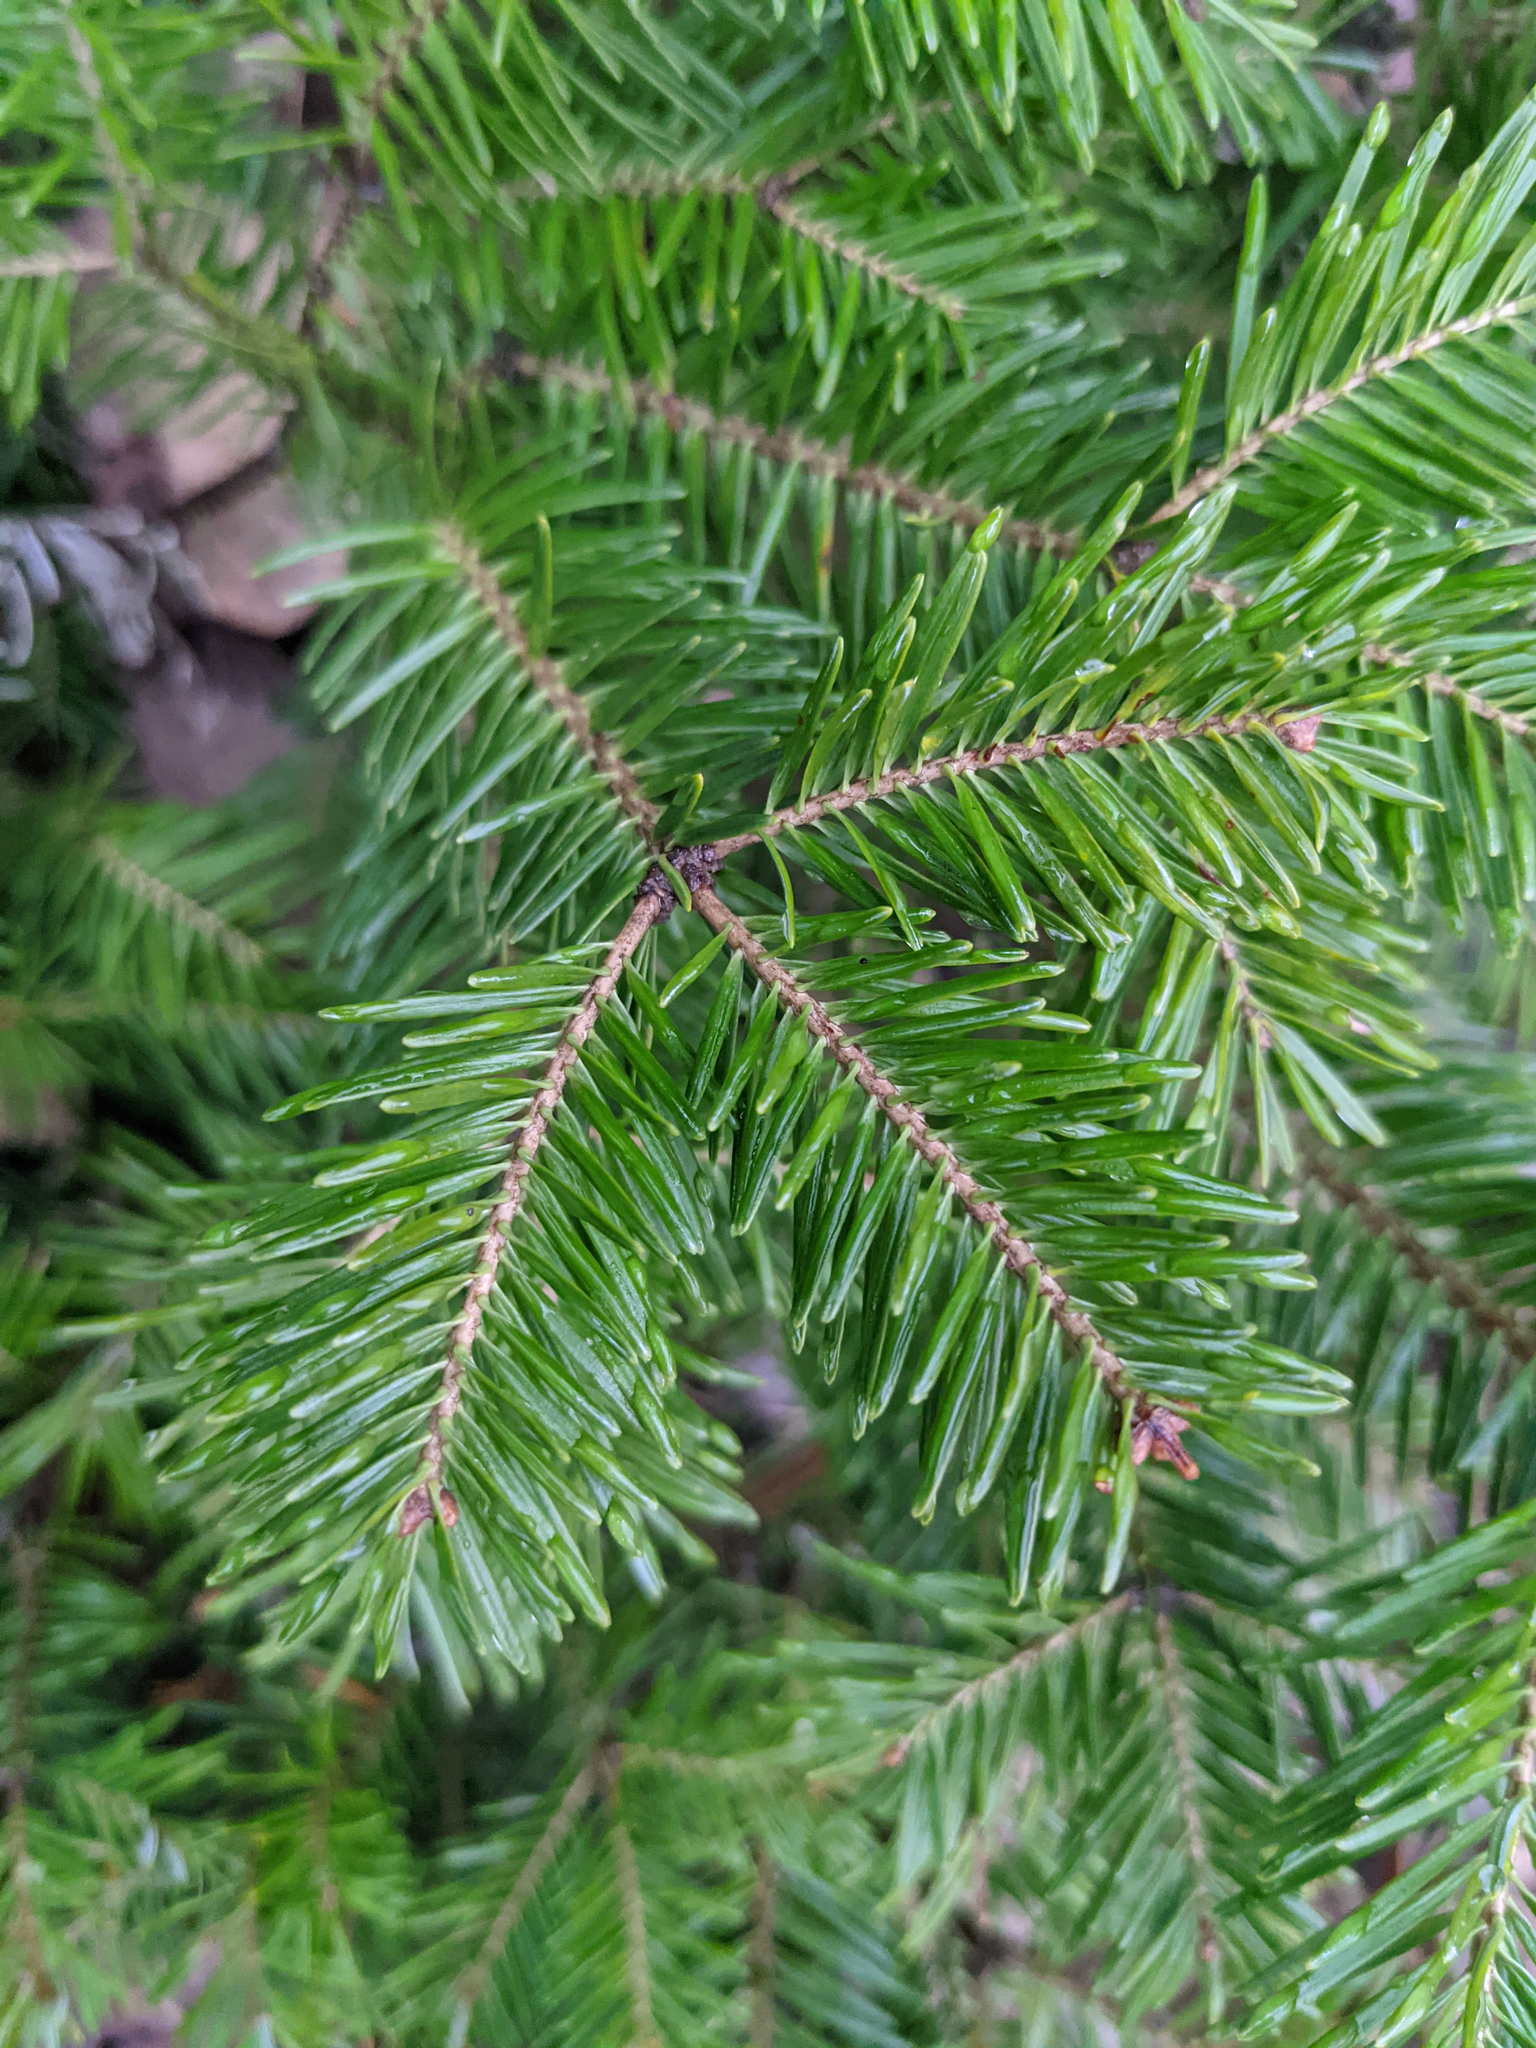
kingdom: Plantae
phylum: Tracheophyta
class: Pinopsida
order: Pinales
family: Pinaceae
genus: Abies
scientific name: Abies balsamea
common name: Balsam fir
